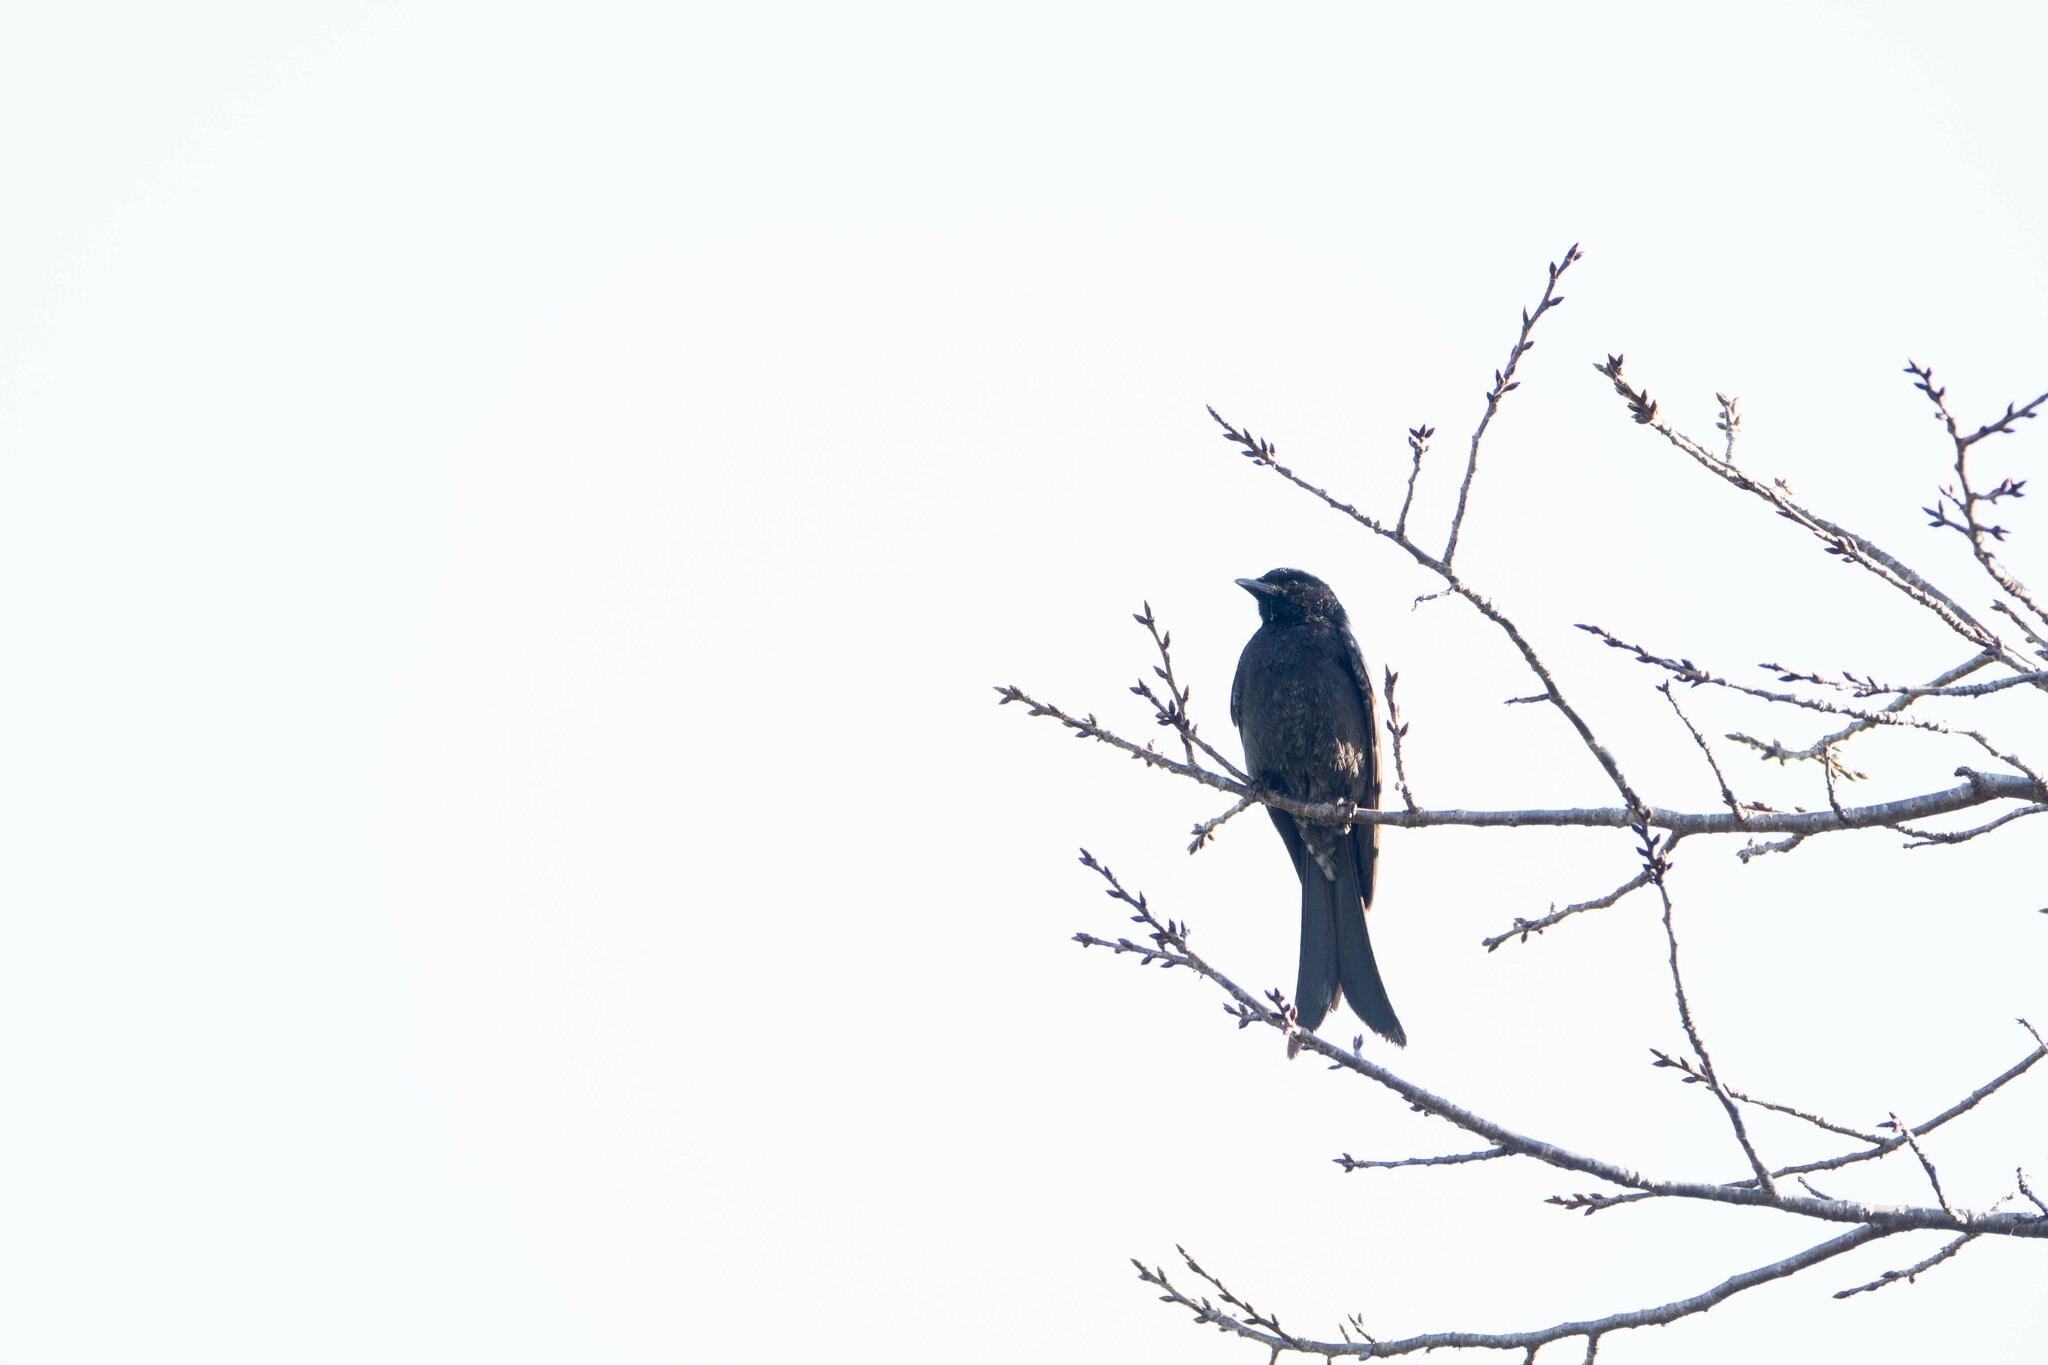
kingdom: Animalia
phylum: Chordata
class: Aves
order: Passeriformes
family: Dicruridae
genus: Dicrurus
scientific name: Dicrurus macrocercus
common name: Black drongo
